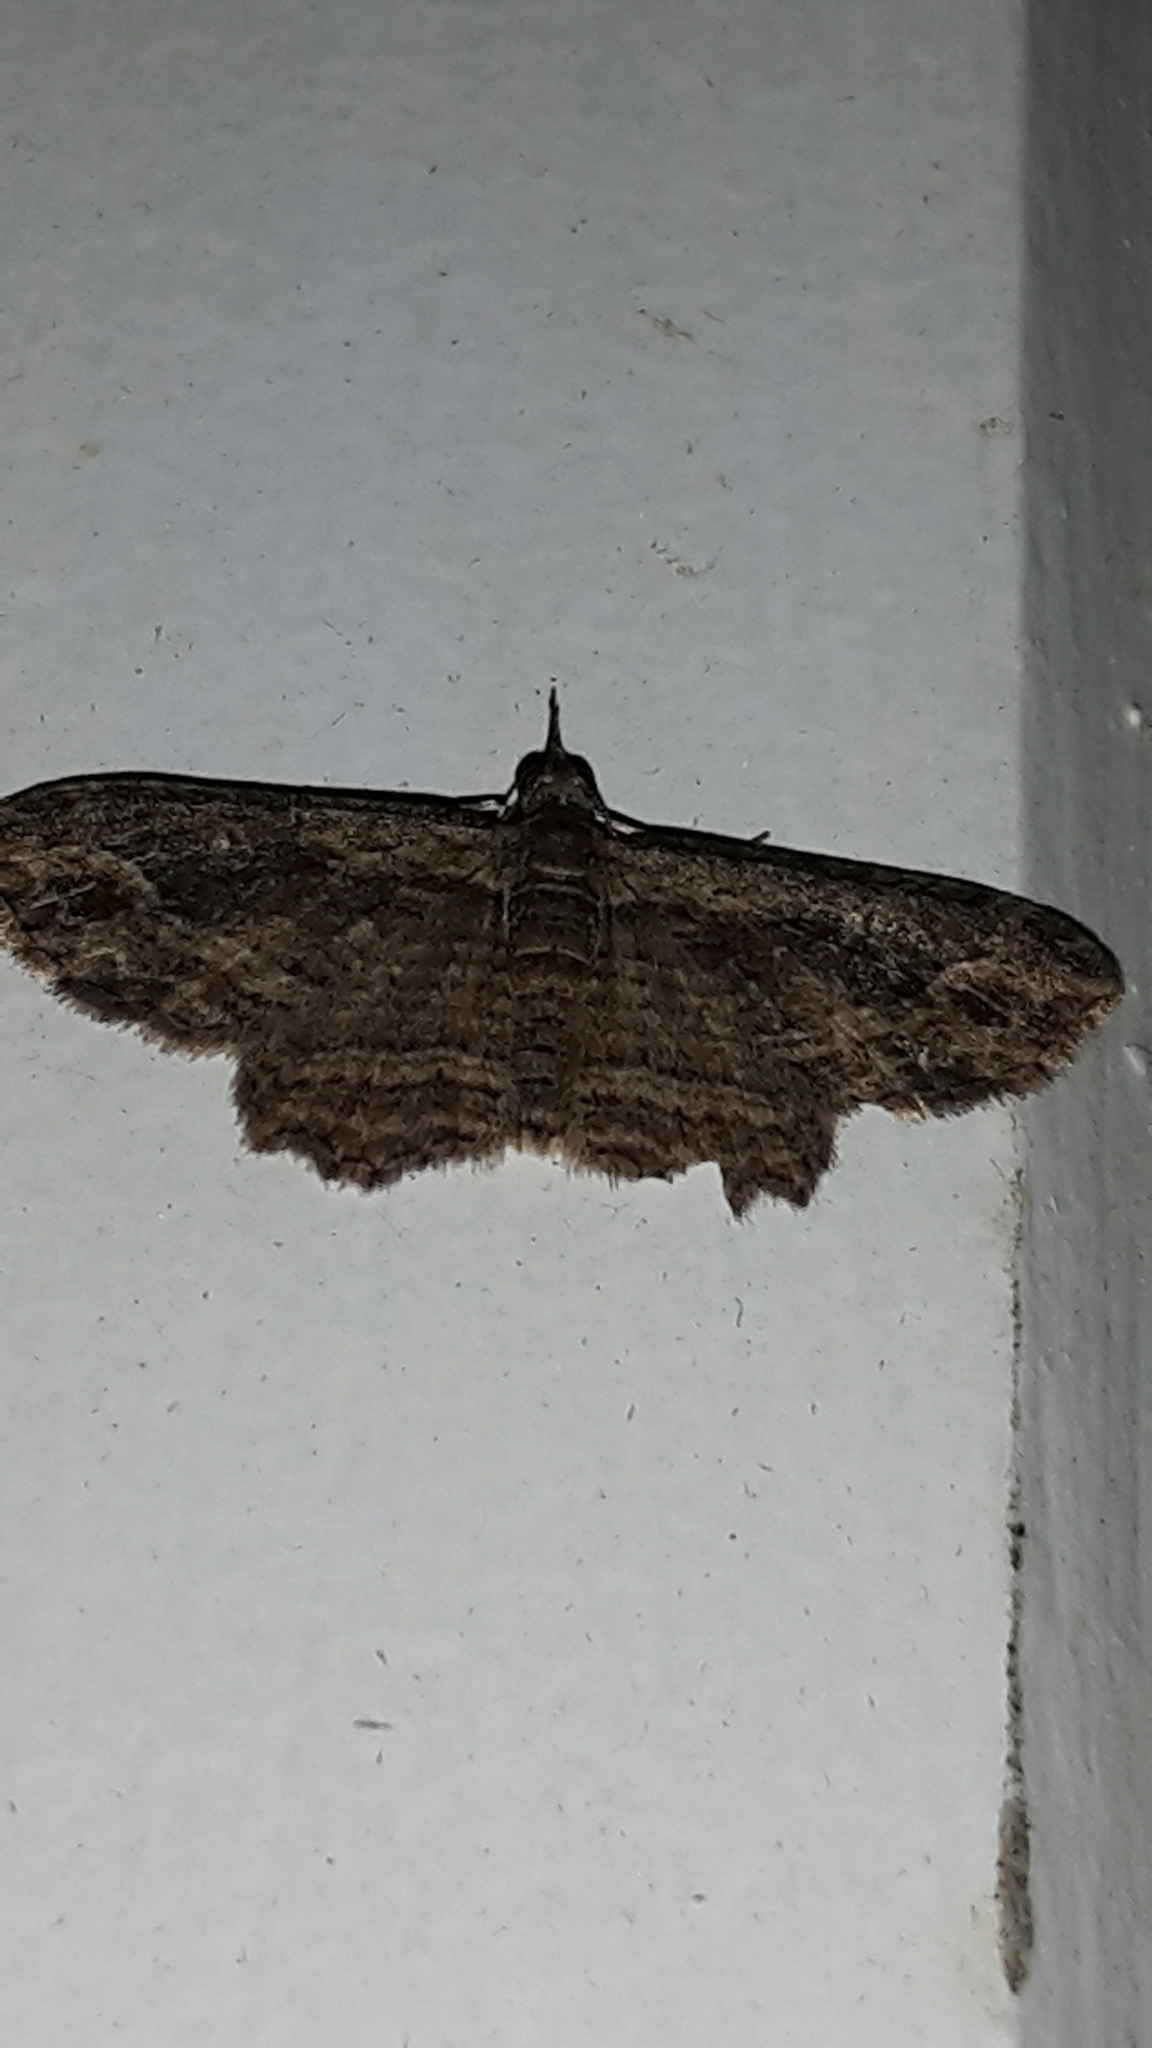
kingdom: Animalia
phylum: Arthropoda
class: Insecta
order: Lepidoptera
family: Geometridae
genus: Chloroclystis
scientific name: Chloroclystis filata
